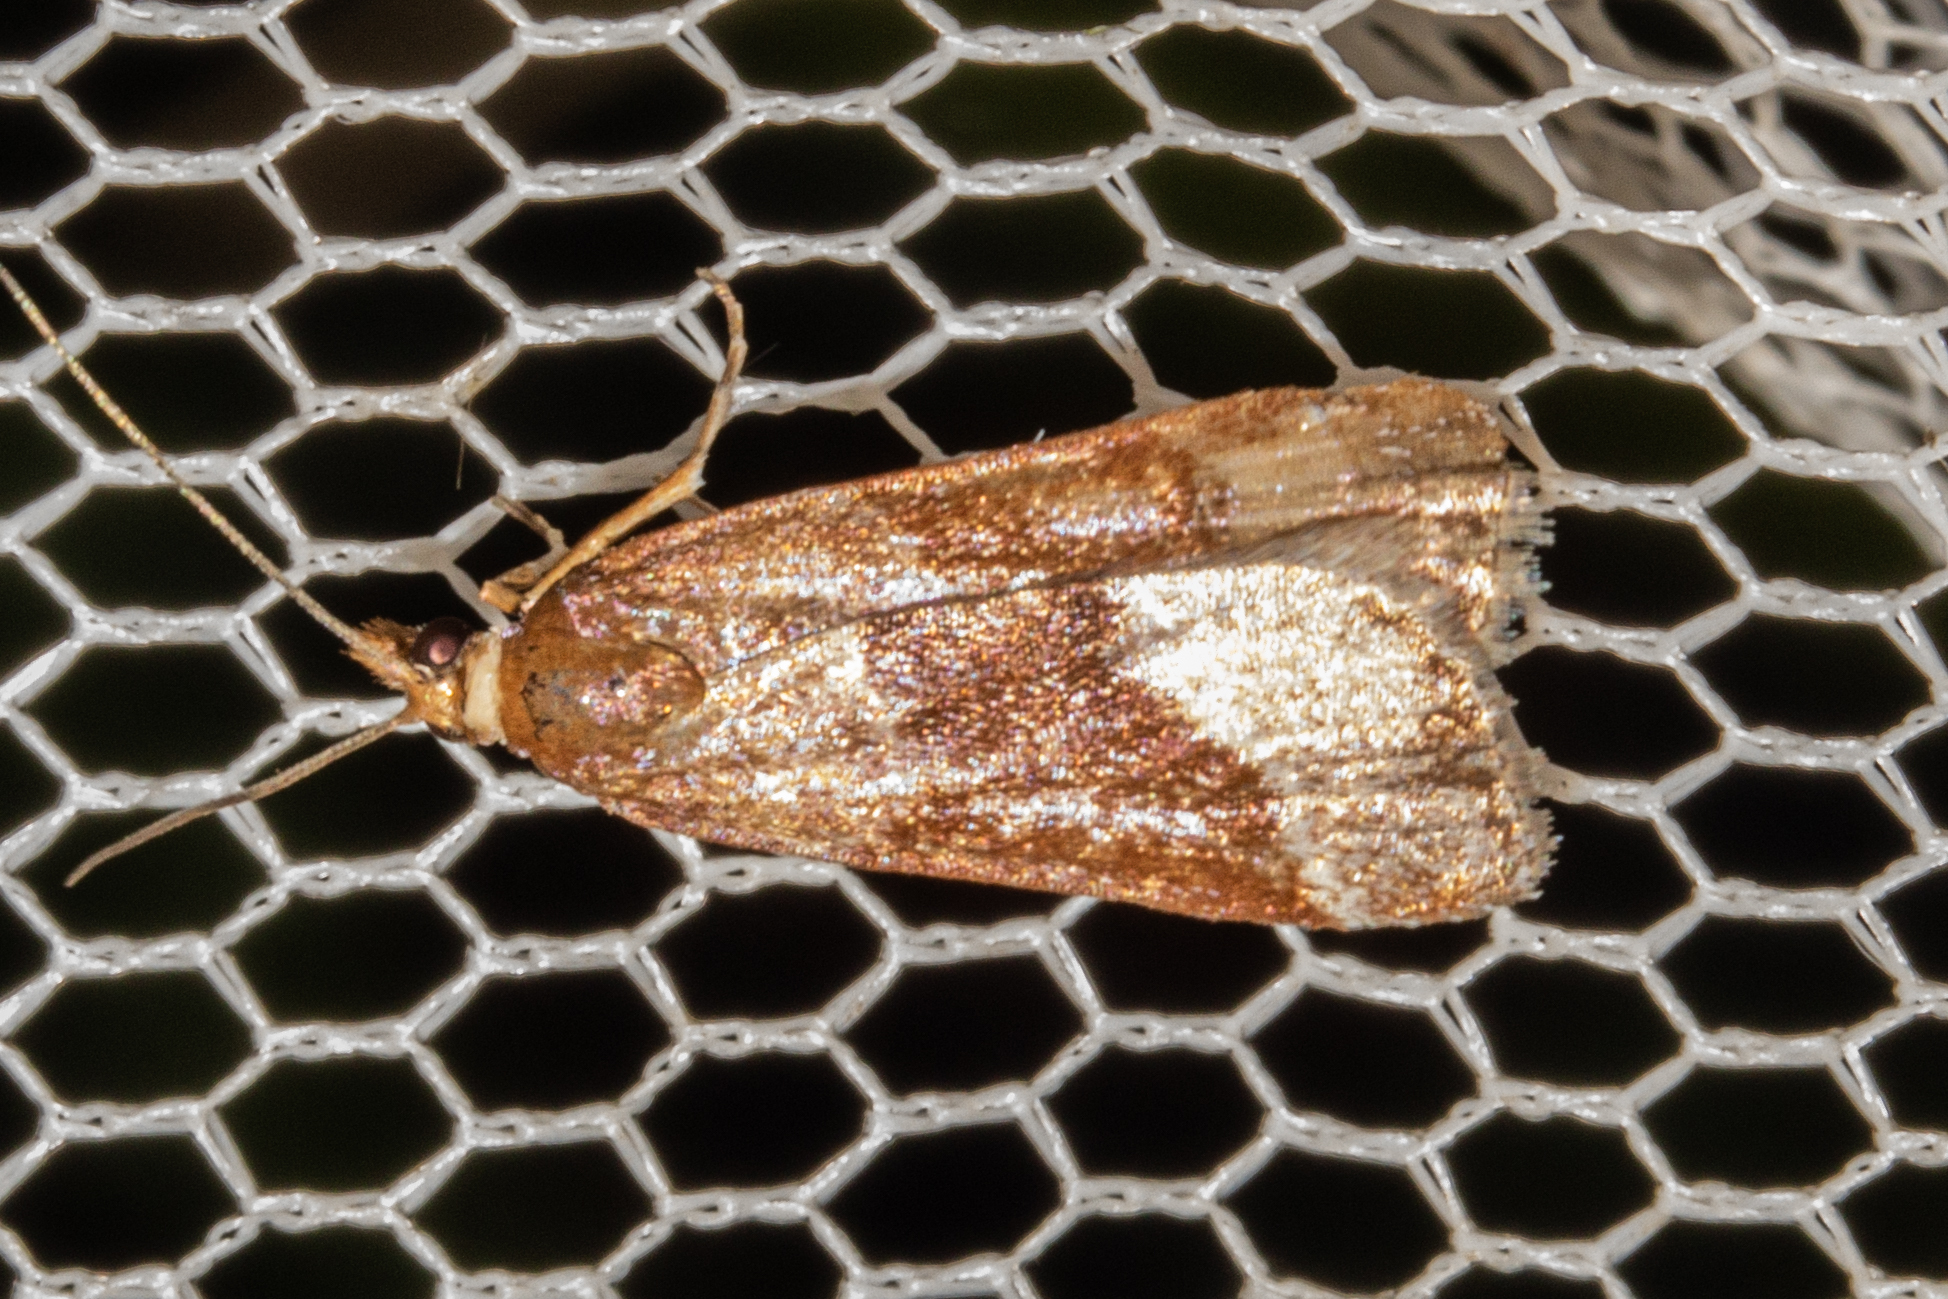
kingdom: Animalia
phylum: Arthropoda
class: Insecta
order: Lepidoptera
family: Crambidae
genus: Eudonia
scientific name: Eudonia feredayi
